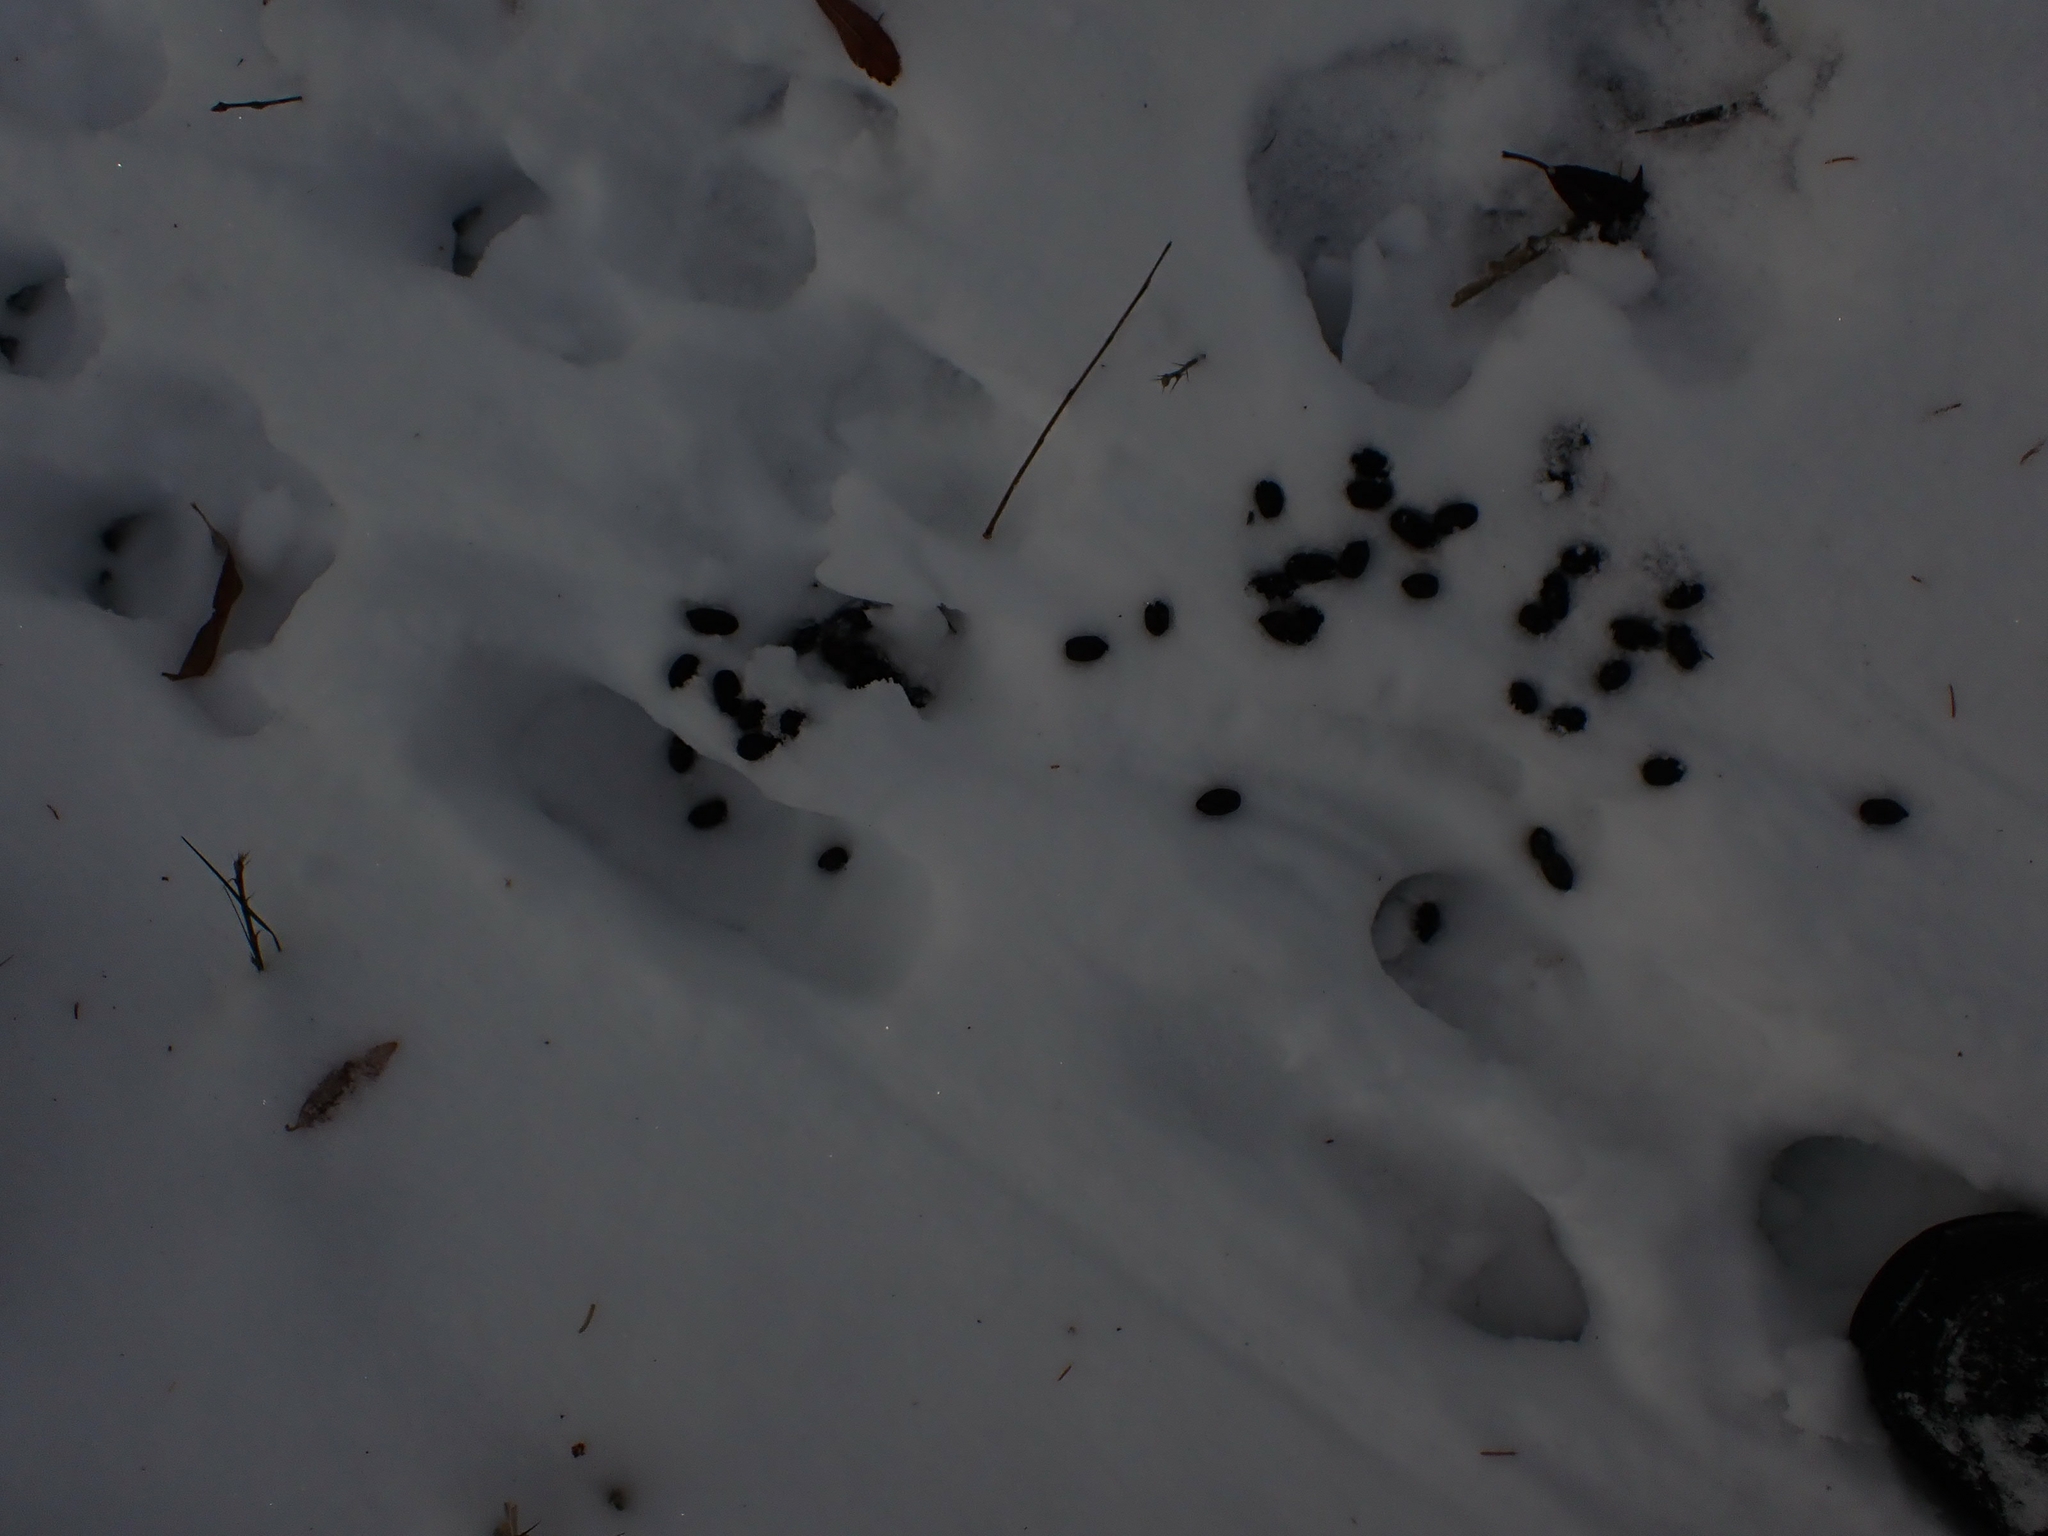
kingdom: Animalia
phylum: Chordata
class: Mammalia
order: Artiodactyla
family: Cervidae
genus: Odocoileus
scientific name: Odocoileus virginianus
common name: White-tailed deer
